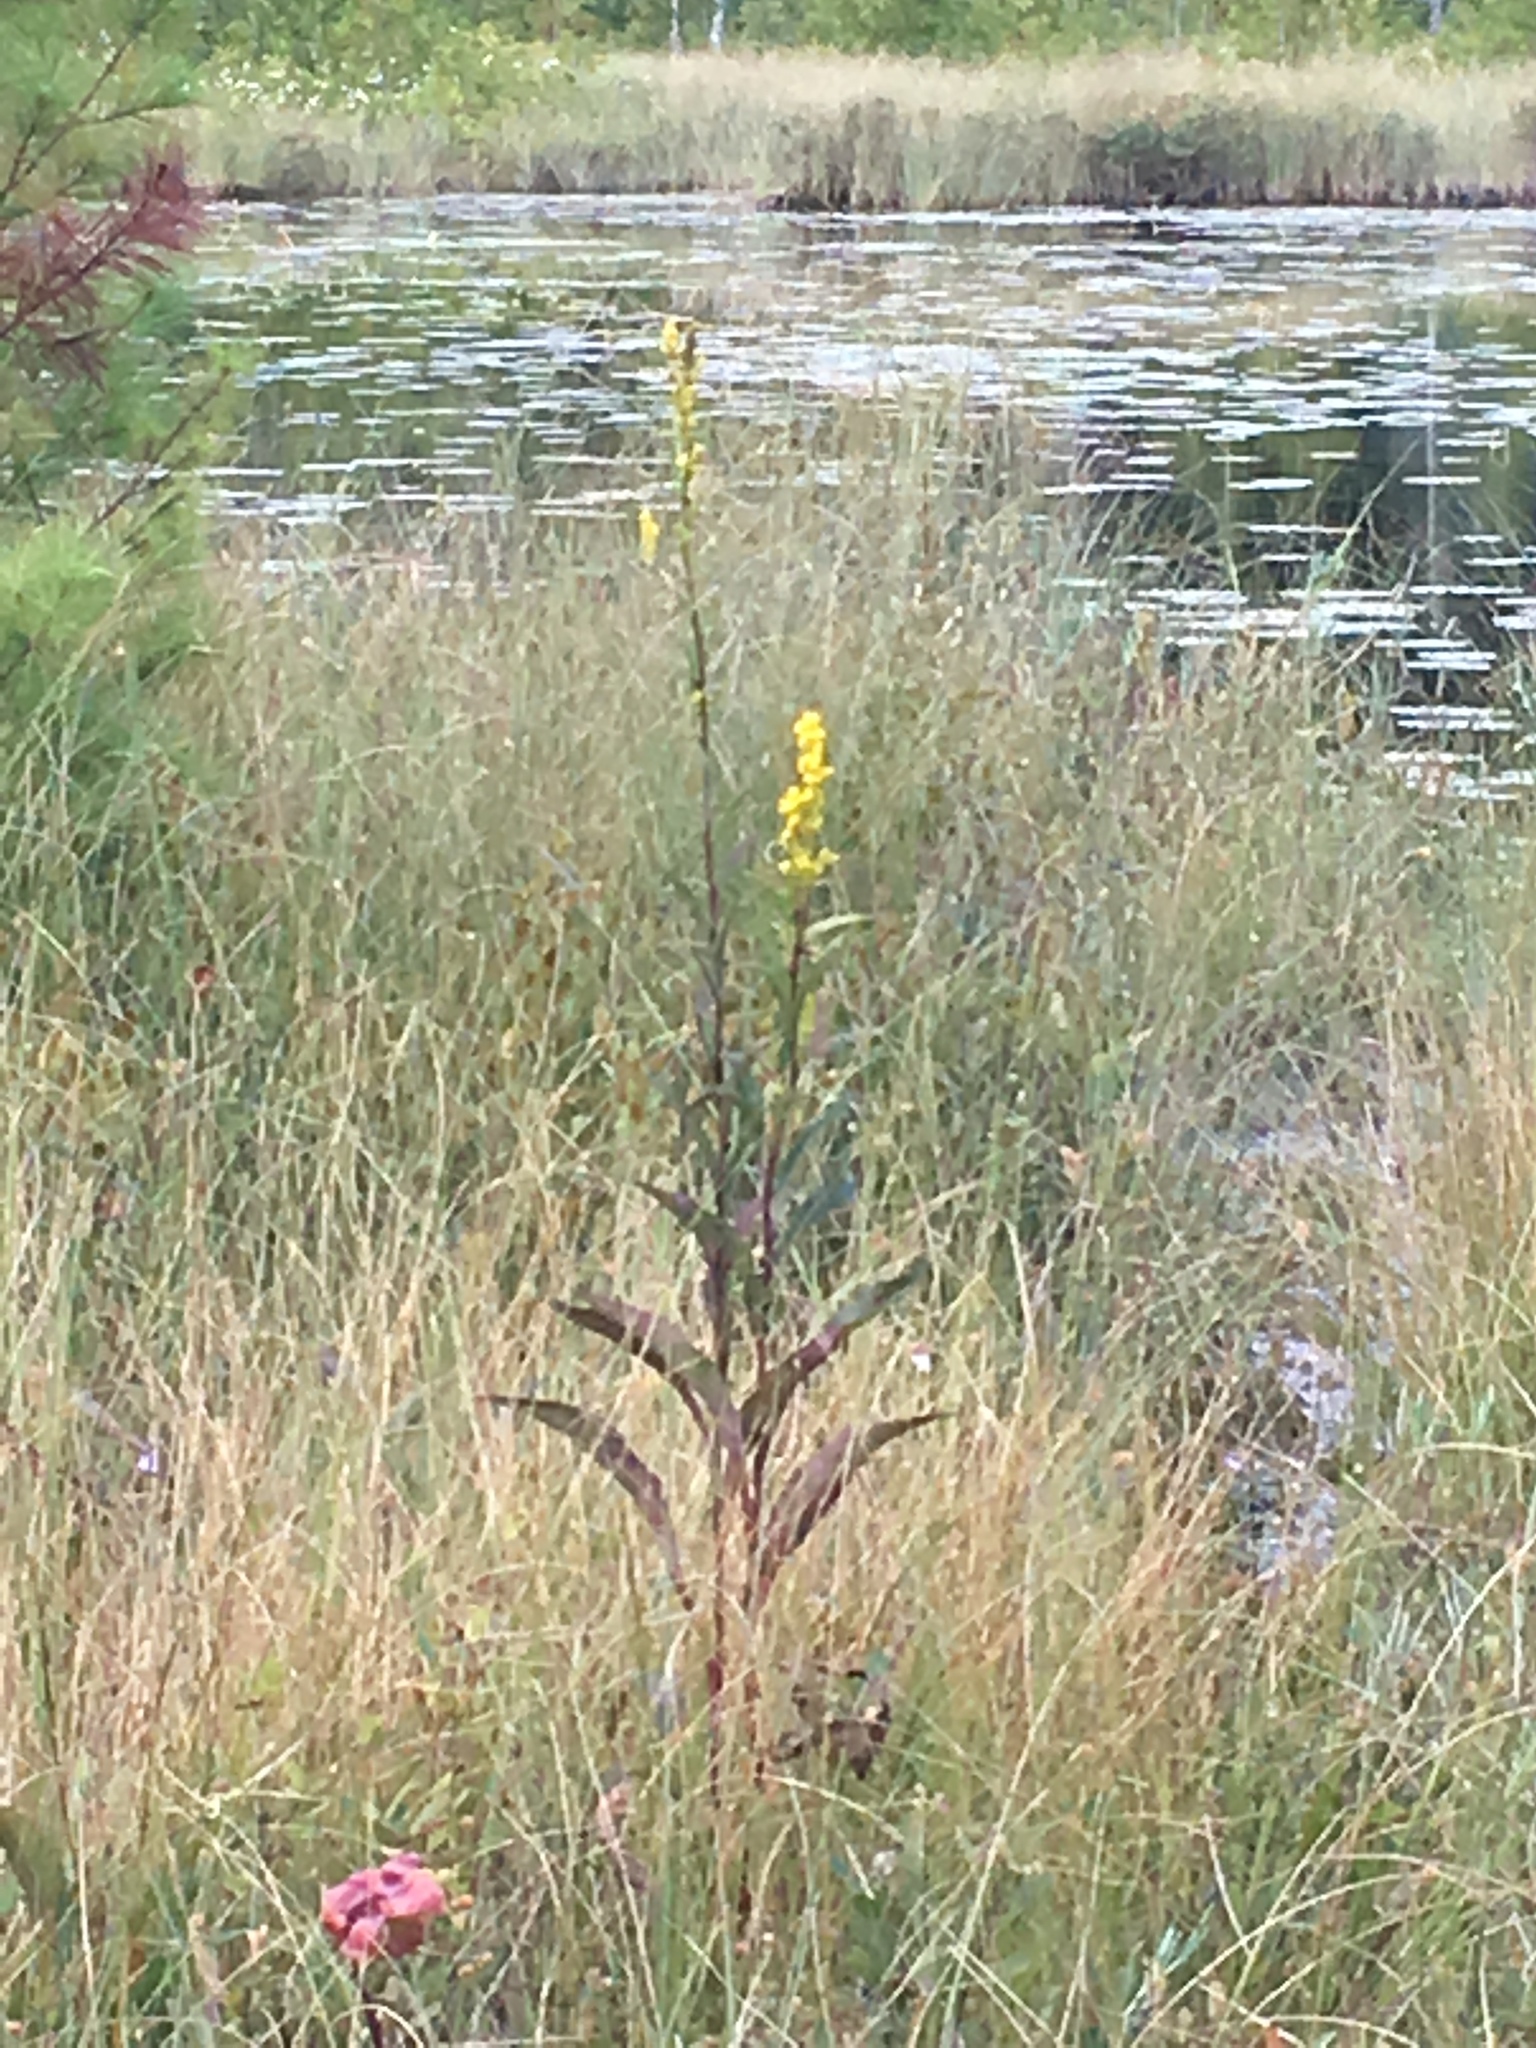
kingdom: Plantae
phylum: Tracheophyta
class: Magnoliopsida
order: Asterales
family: Asteraceae
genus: Solidago
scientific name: Solidago uliginosa
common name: Bog goldenrod
